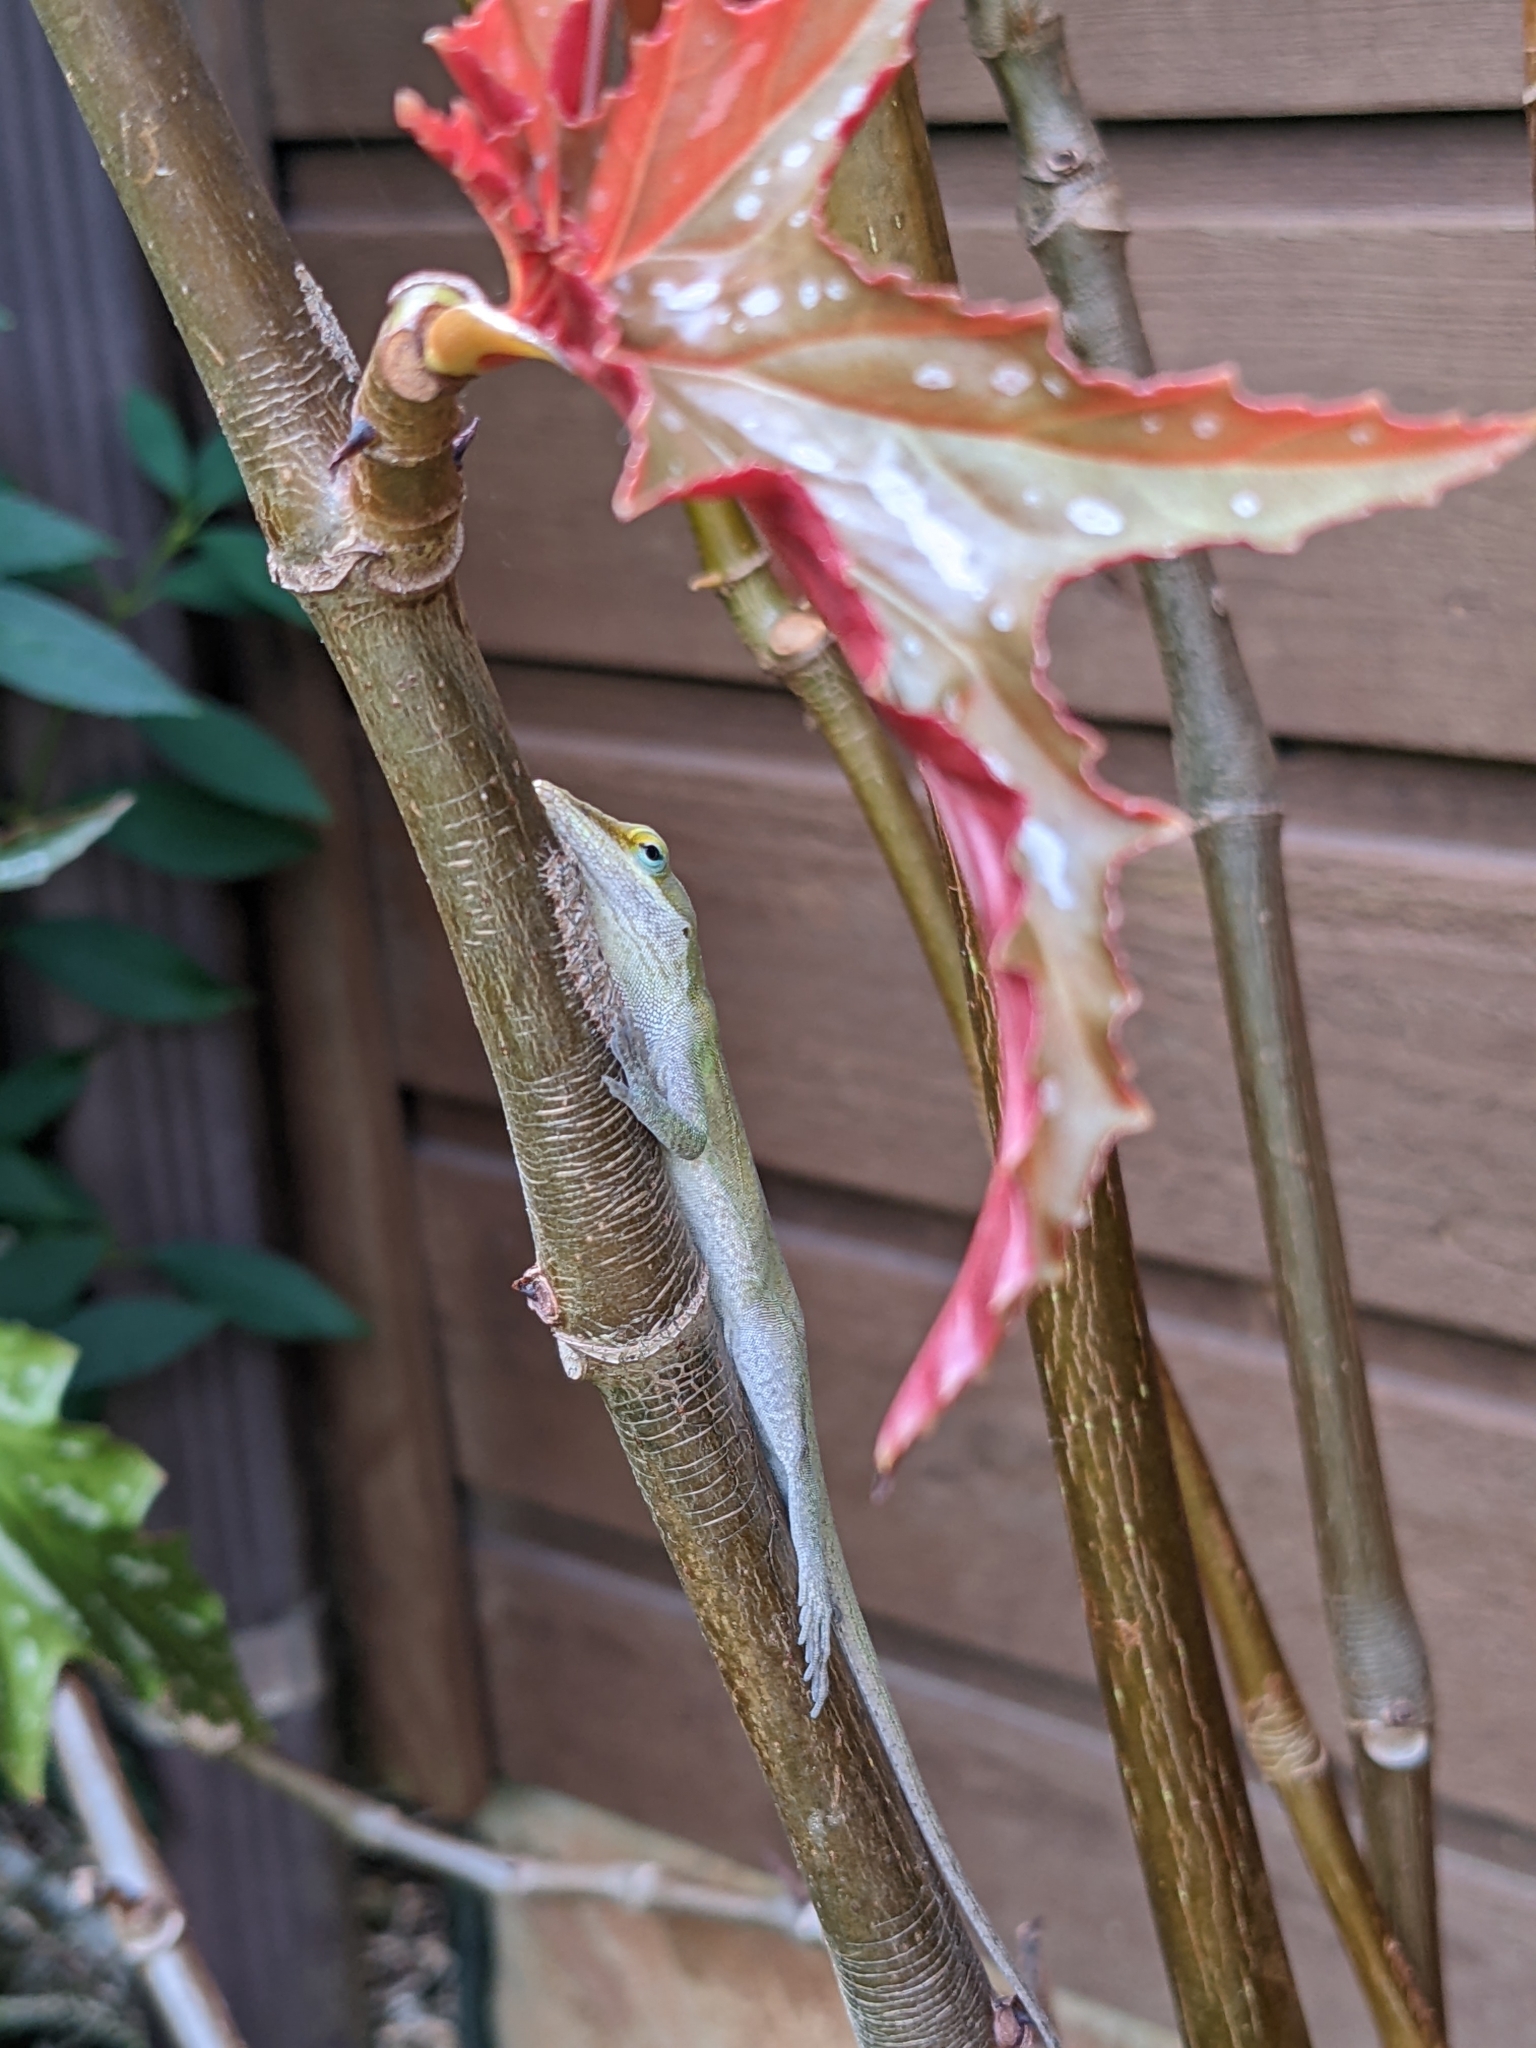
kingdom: Animalia
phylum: Chordata
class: Squamata
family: Dactyloidae
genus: Anolis
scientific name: Anolis carolinensis
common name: Green anole
